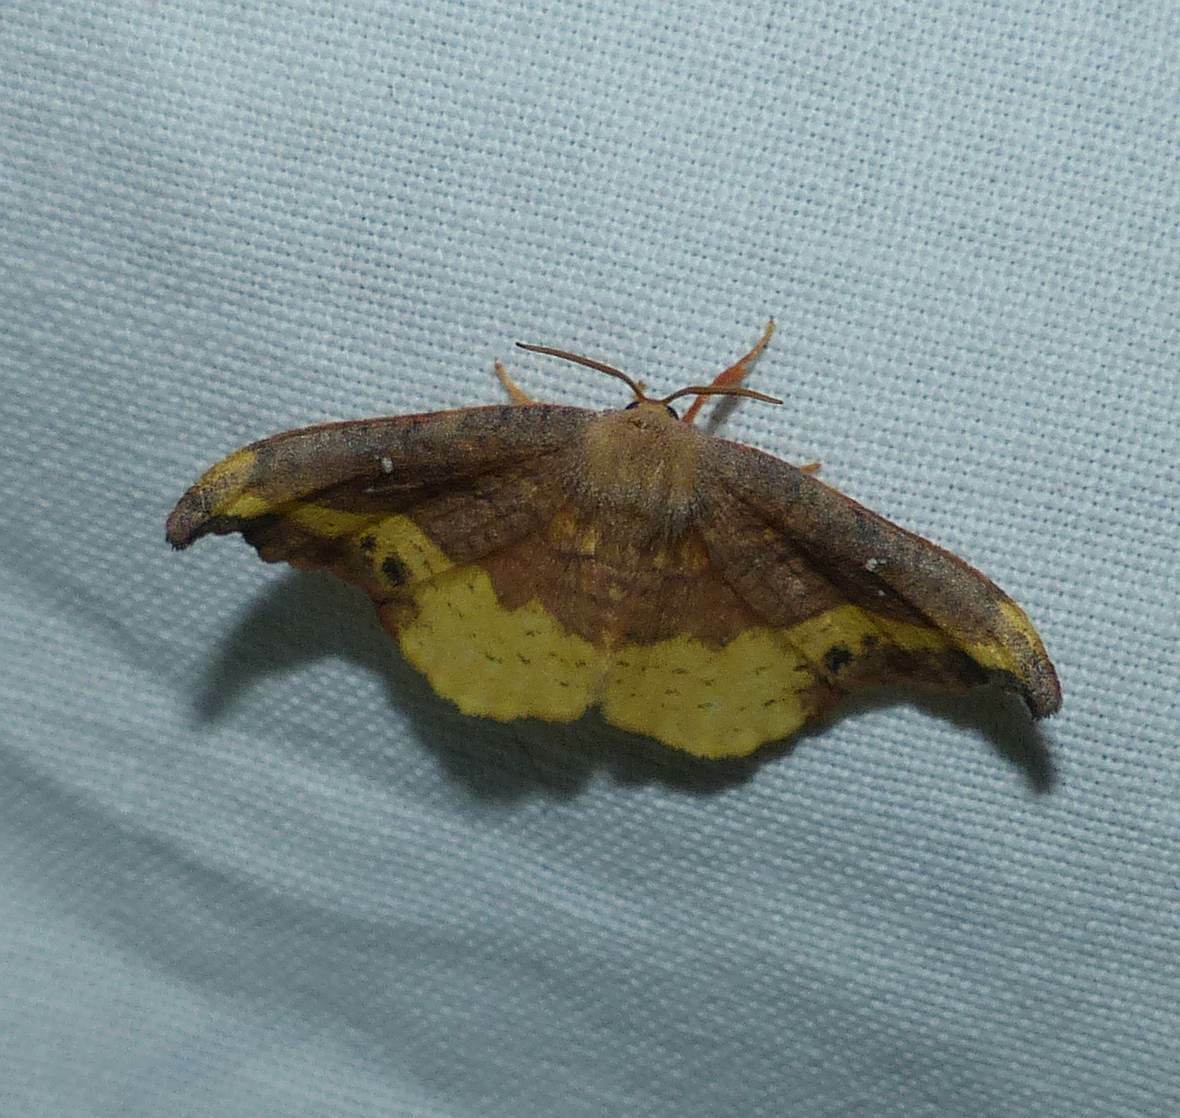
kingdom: Animalia
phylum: Arthropoda
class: Insecta
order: Lepidoptera
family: Drepanidae
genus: Oreta
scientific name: Oreta rosea
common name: Rose hooktip
